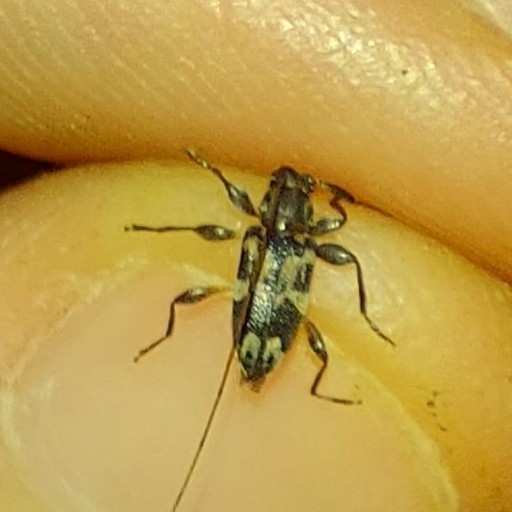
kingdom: Animalia
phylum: Arthropoda
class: Insecta
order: Coleoptera
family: Cerambycidae
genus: Urgleptes
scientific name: Urgleptes querci
